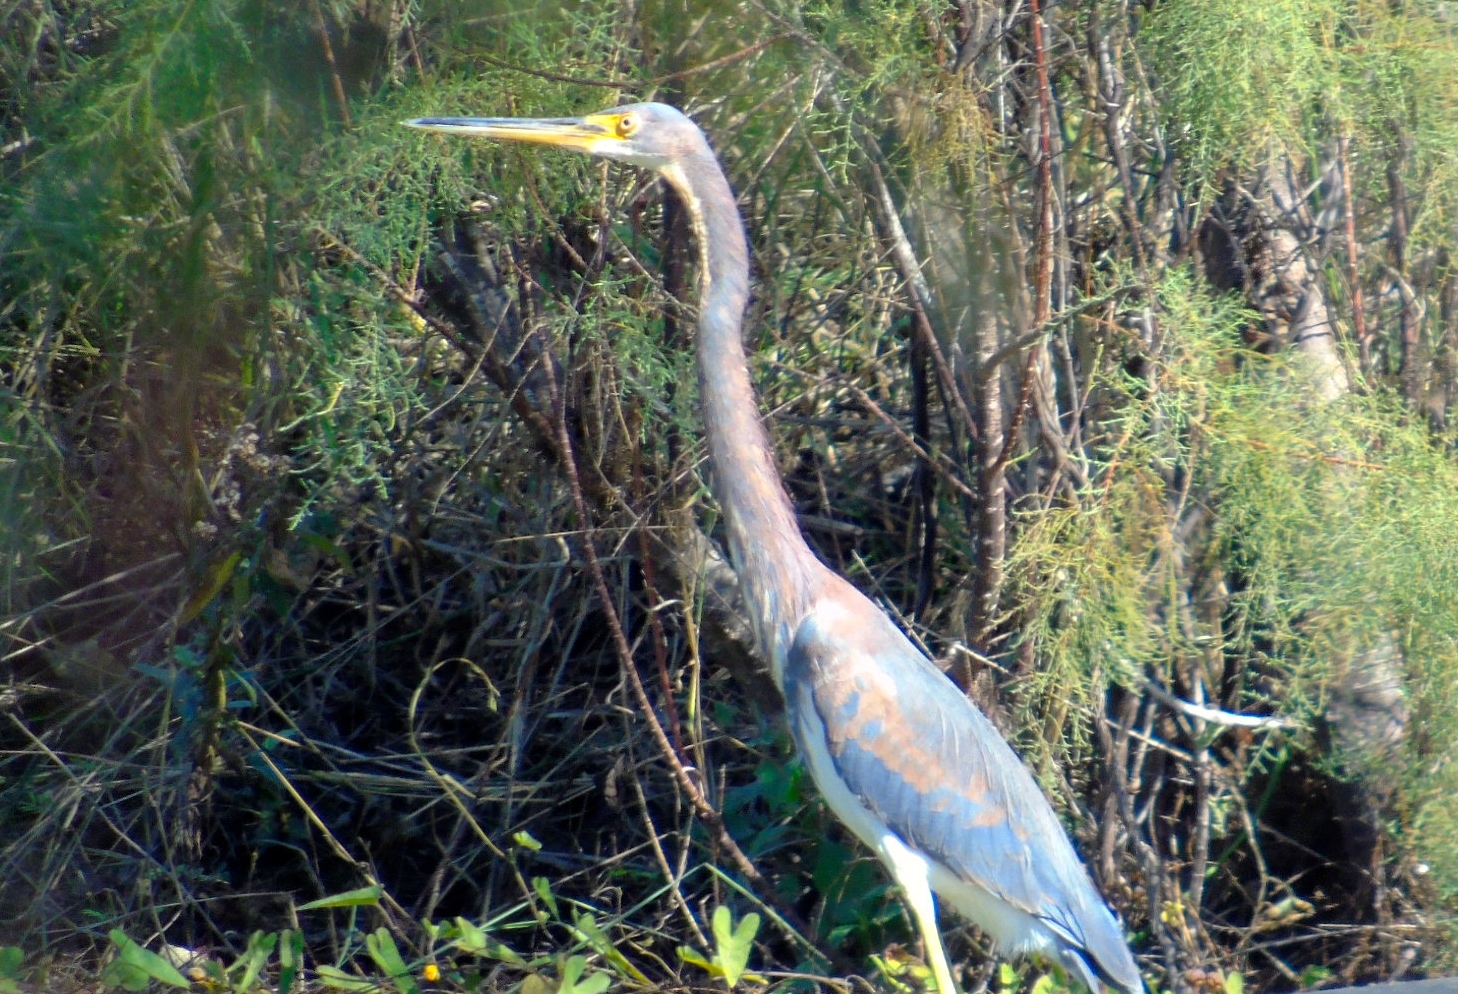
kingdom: Animalia
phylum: Chordata
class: Aves
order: Pelecaniformes
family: Ardeidae
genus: Egretta
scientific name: Egretta tricolor
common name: Tricolored heron
